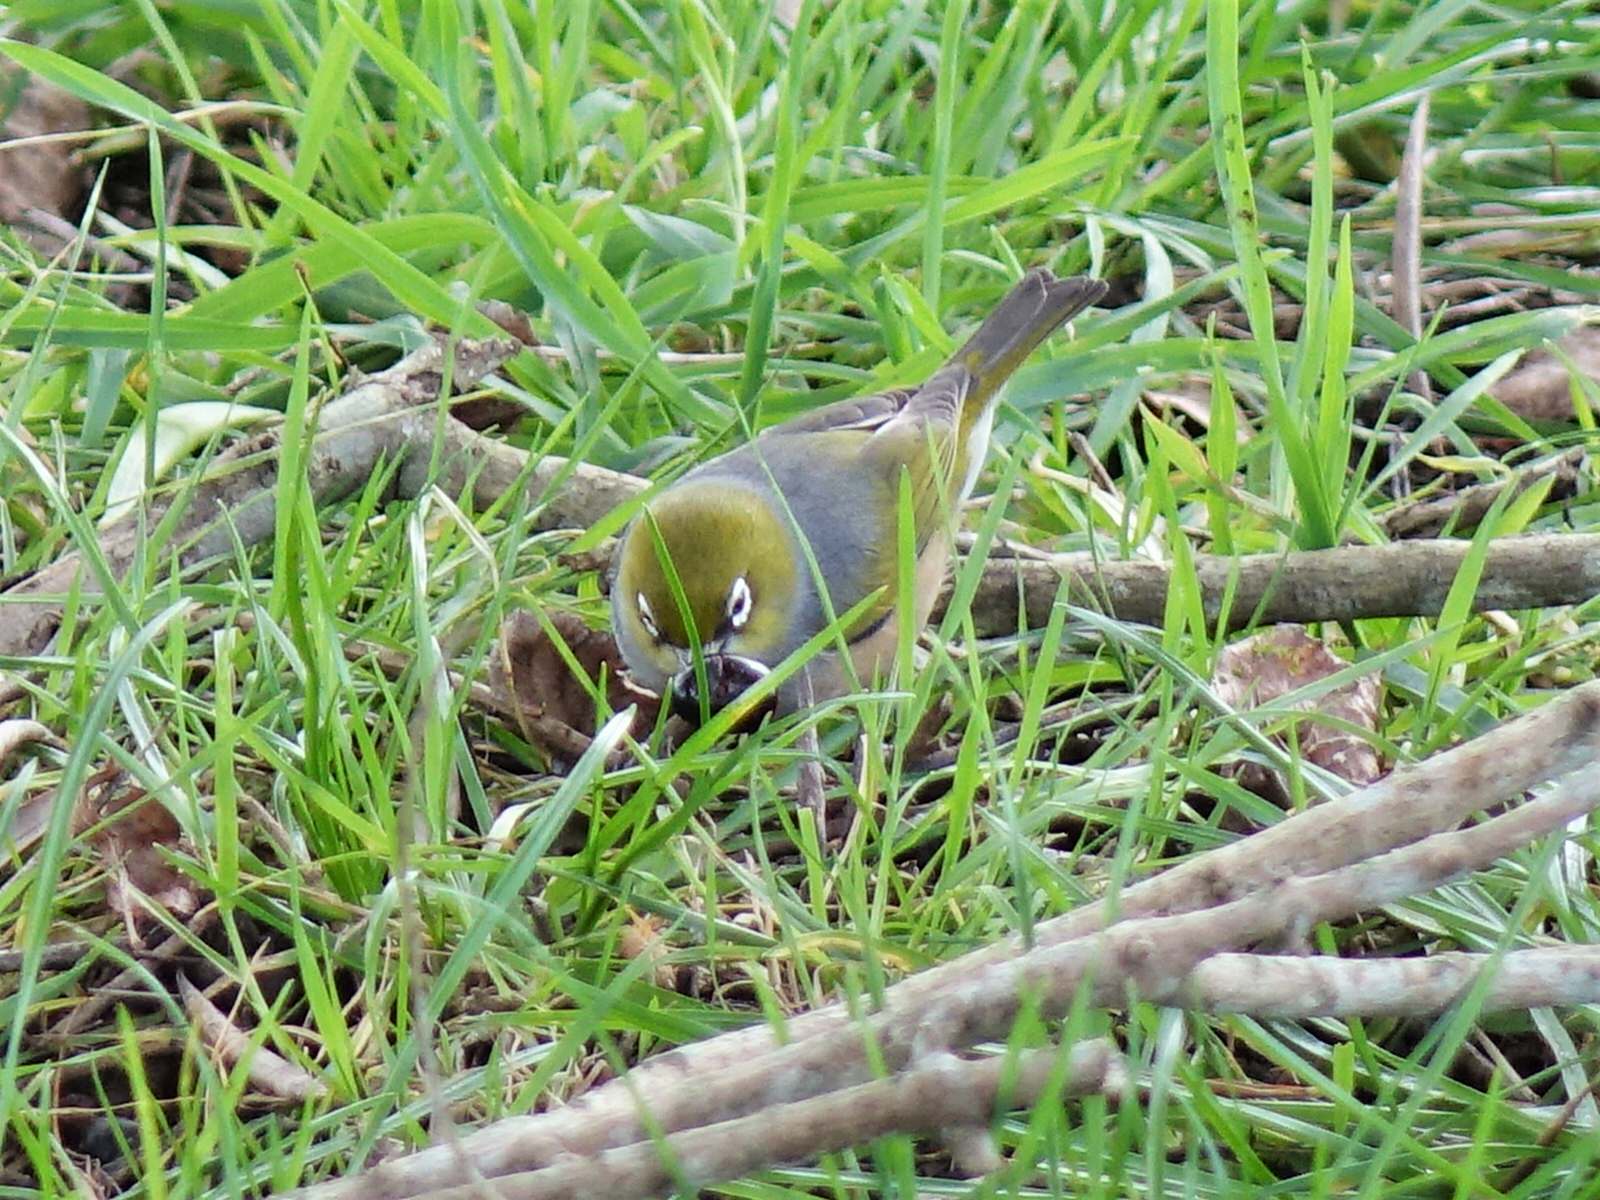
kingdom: Animalia
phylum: Chordata
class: Aves
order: Passeriformes
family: Zosteropidae
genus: Zosterops
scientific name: Zosterops lateralis
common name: Silvereye
